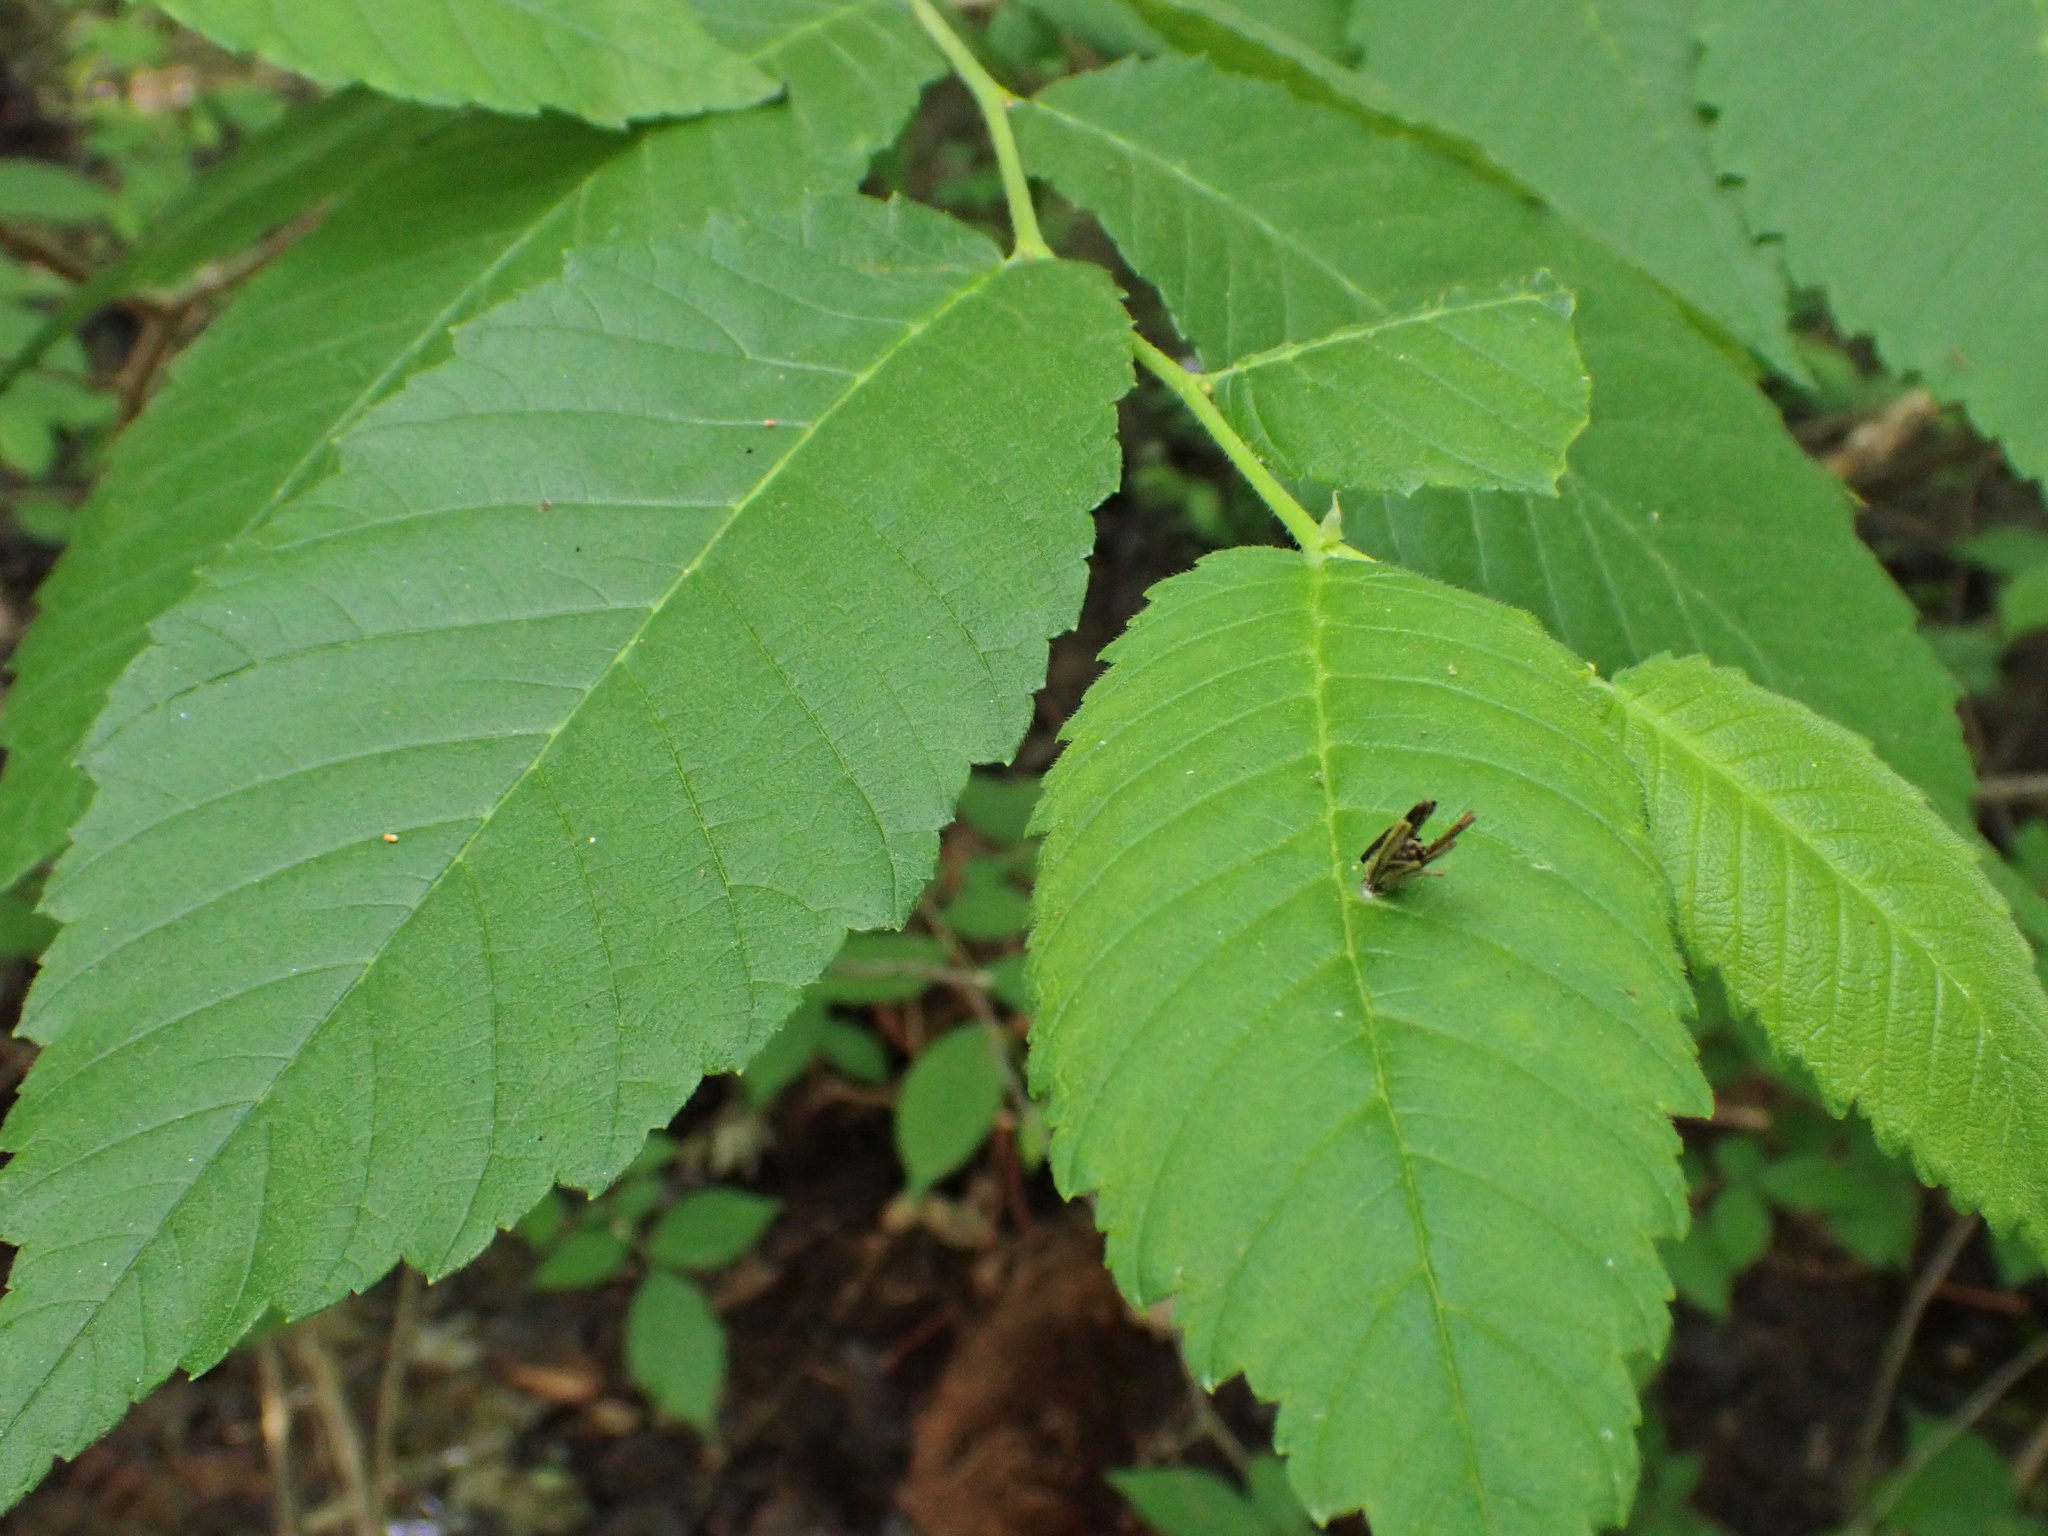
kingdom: Animalia
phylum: Arthropoda
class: Insecta
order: Lepidoptera
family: Psychidae
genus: Psyche
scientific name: Psyche casta
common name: Common sweep
